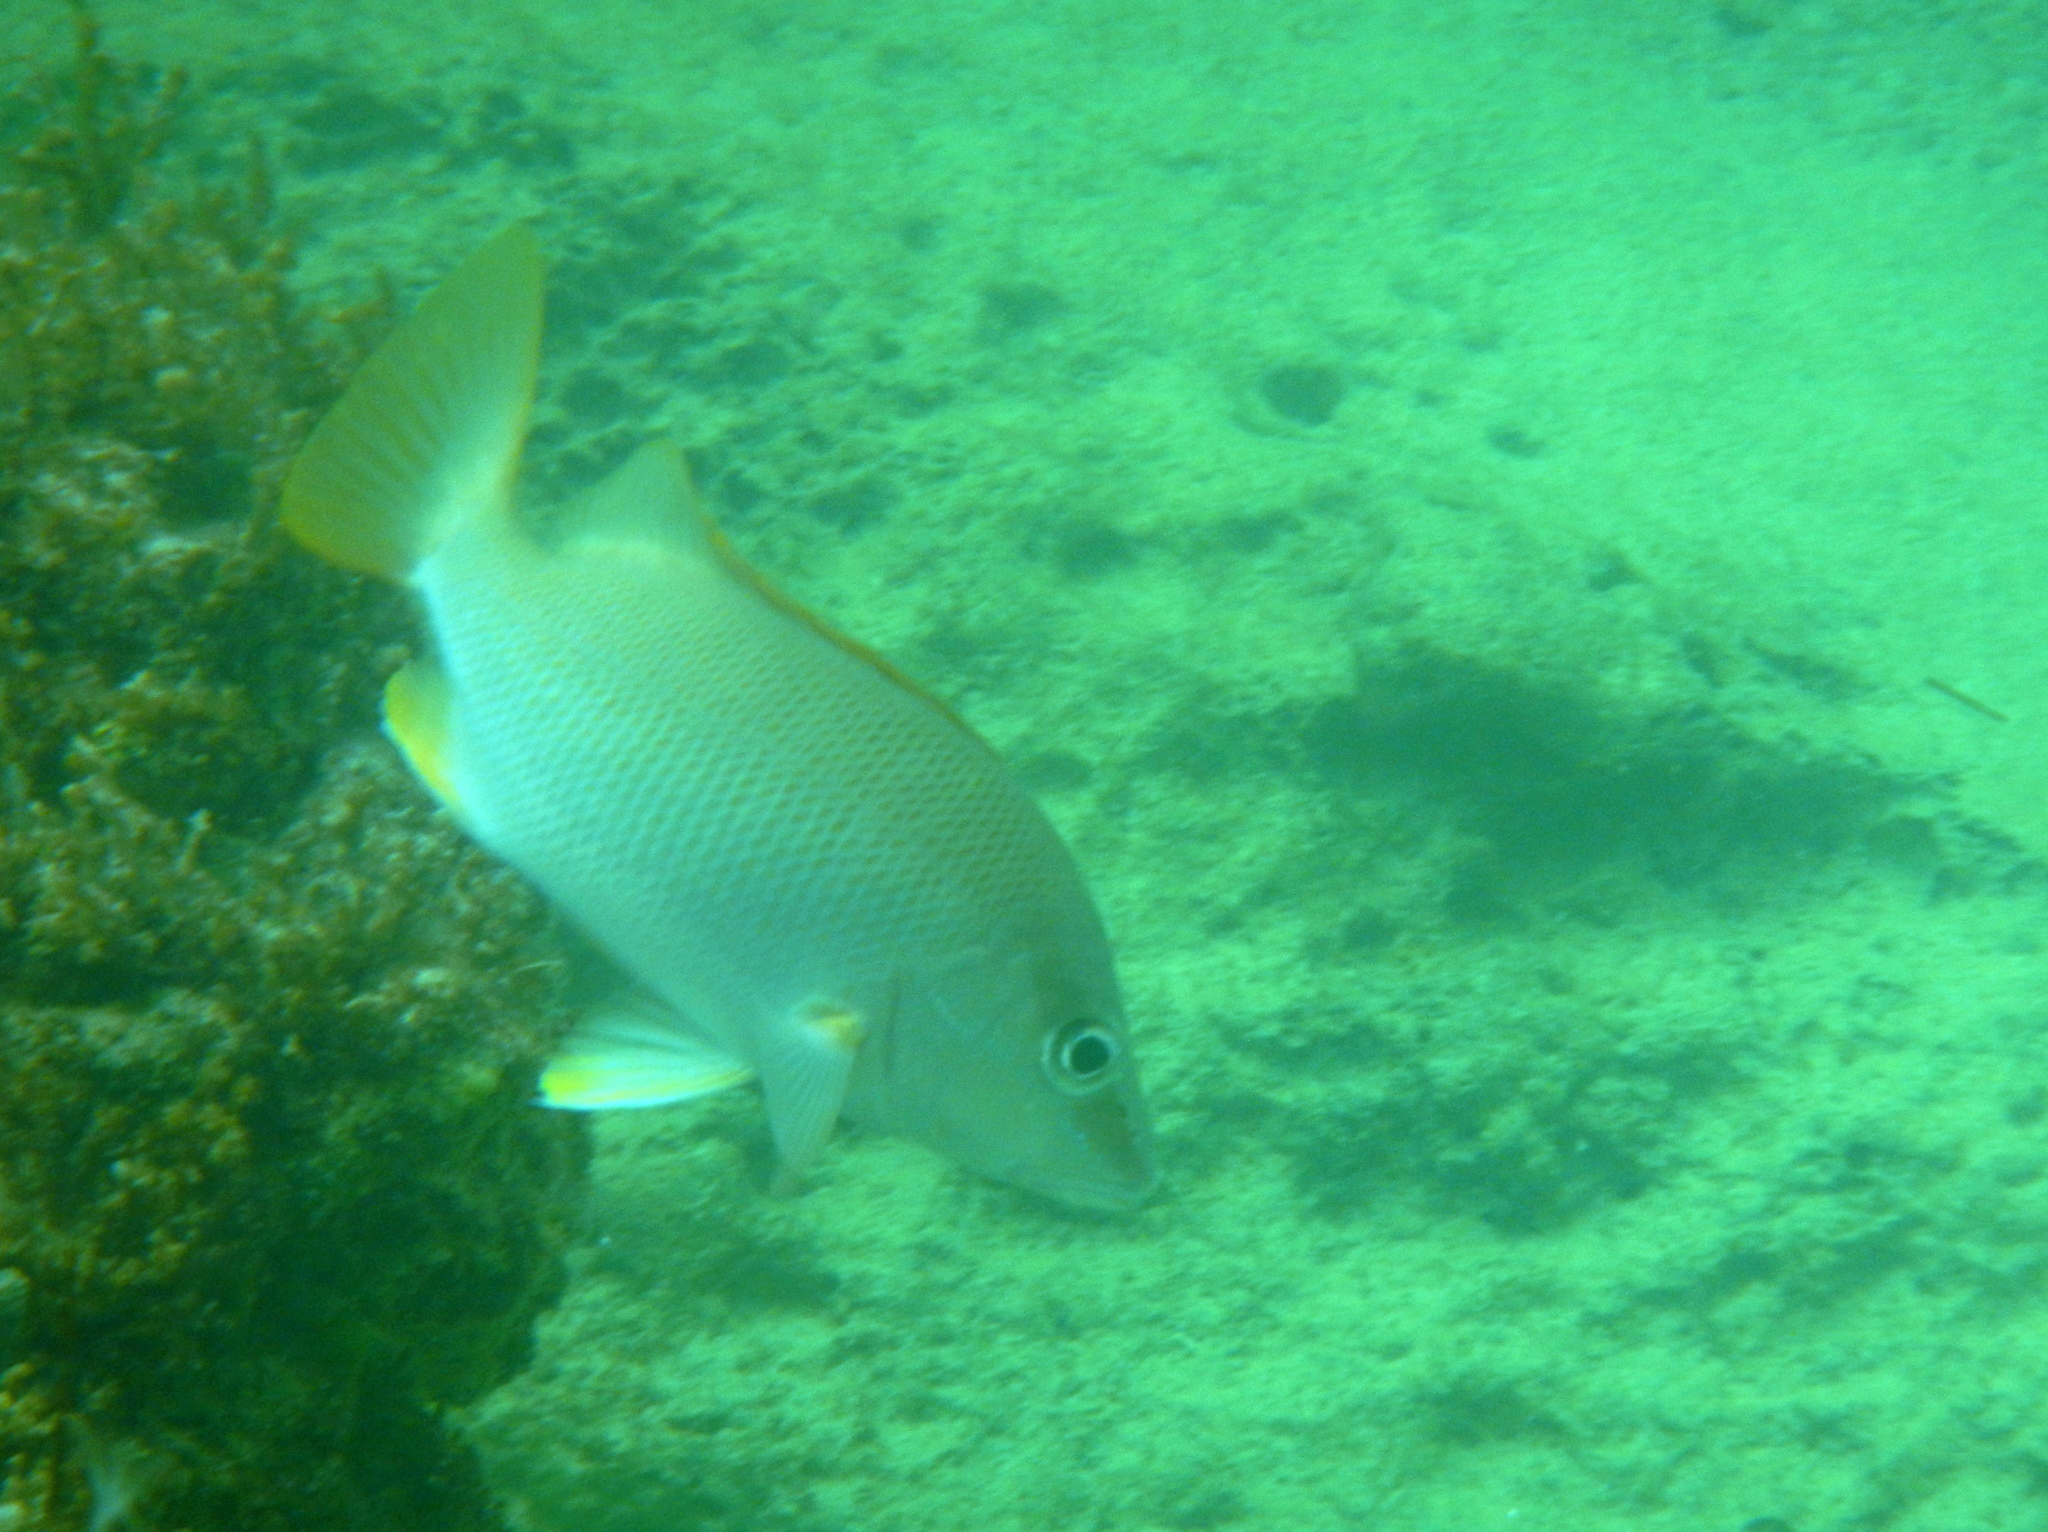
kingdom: Animalia
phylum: Chordata
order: Perciformes
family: Lutjanidae
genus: Lutjanus
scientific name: Lutjanus apodus
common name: Schoolmaster
